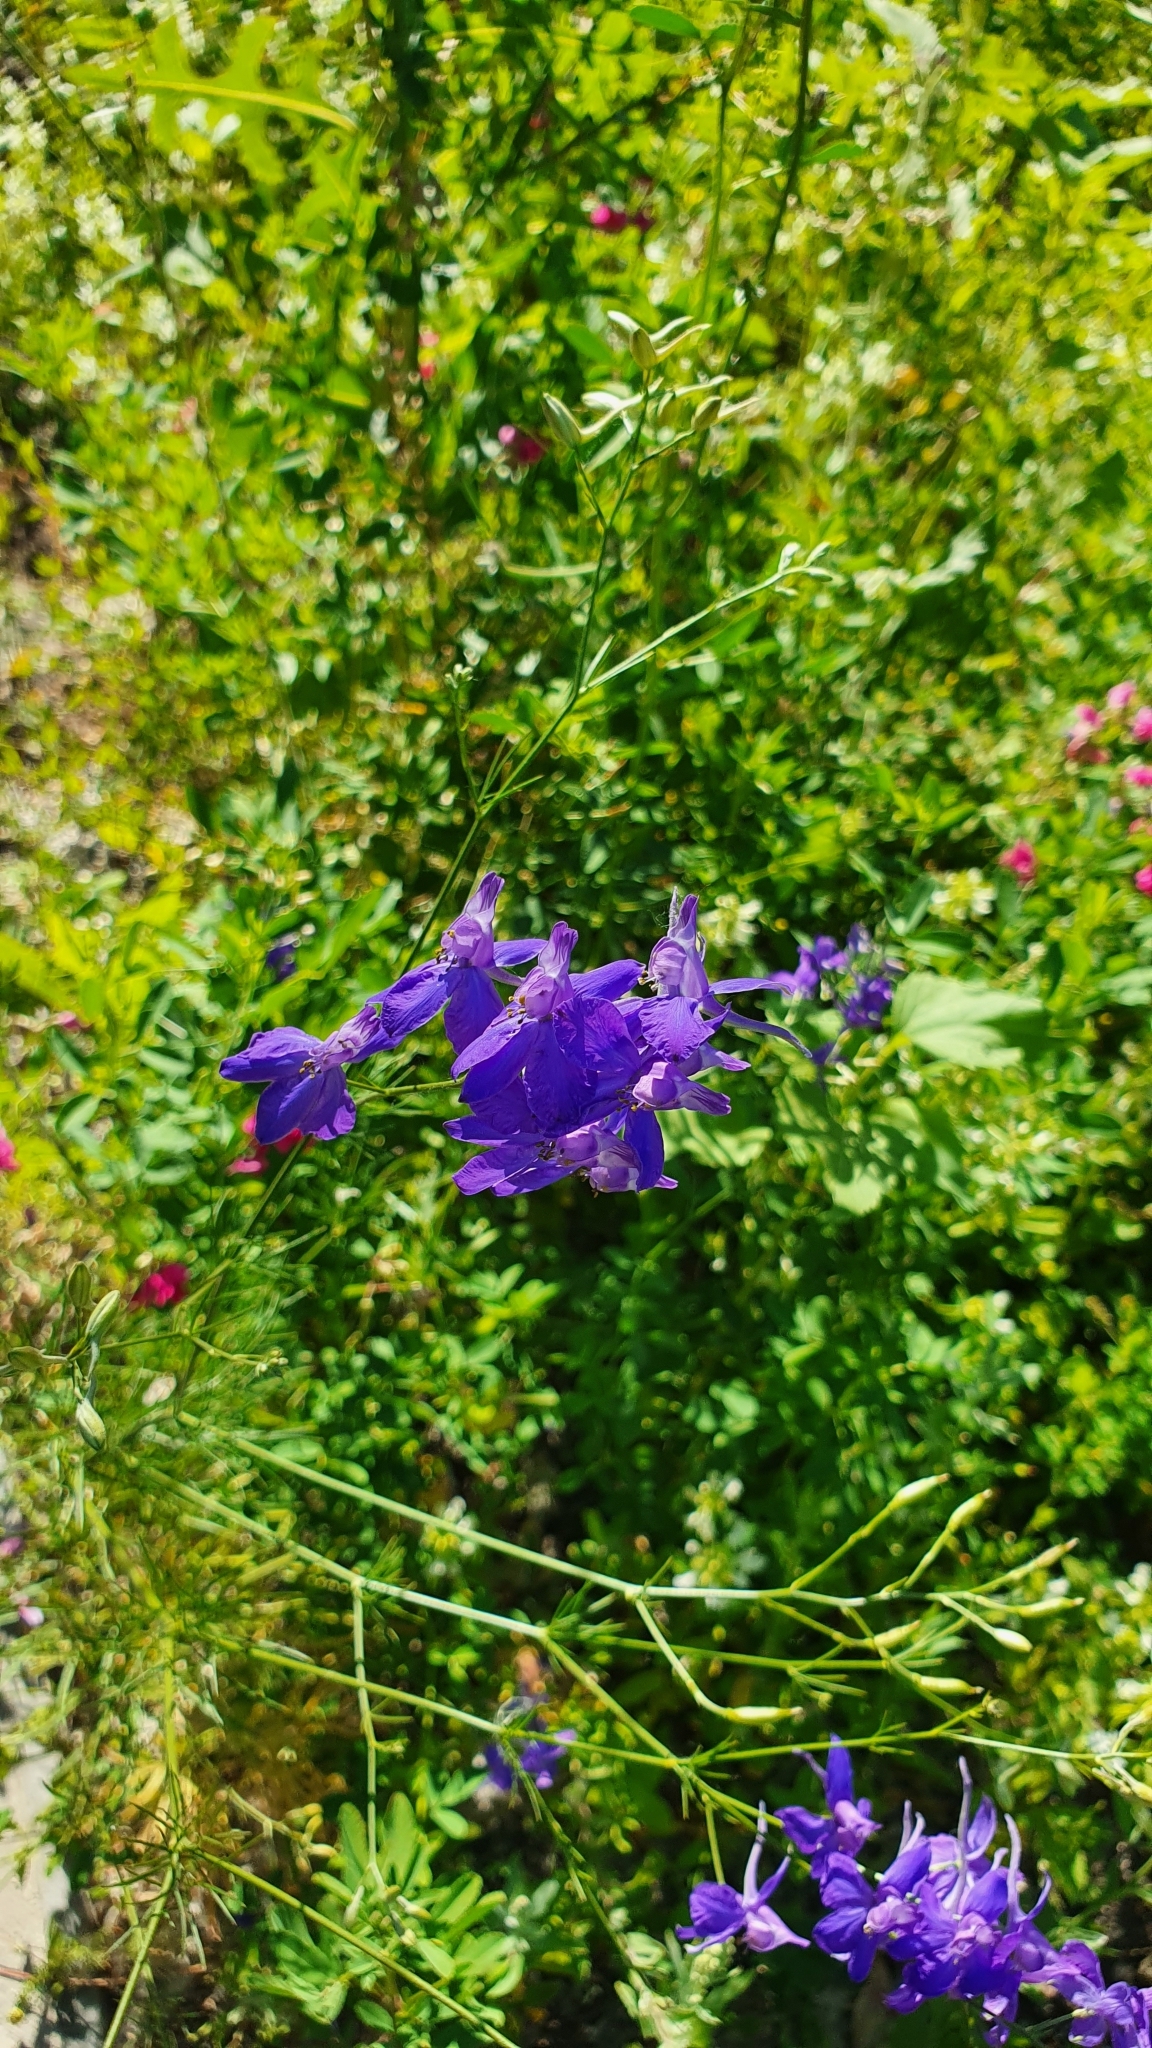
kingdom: Plantae
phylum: Tracheophyta
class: Magnoliopsida
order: Ranunculales
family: Ranunculaceae
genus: Delphinium
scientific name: Delphinium consolida
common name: Branching larkspur
